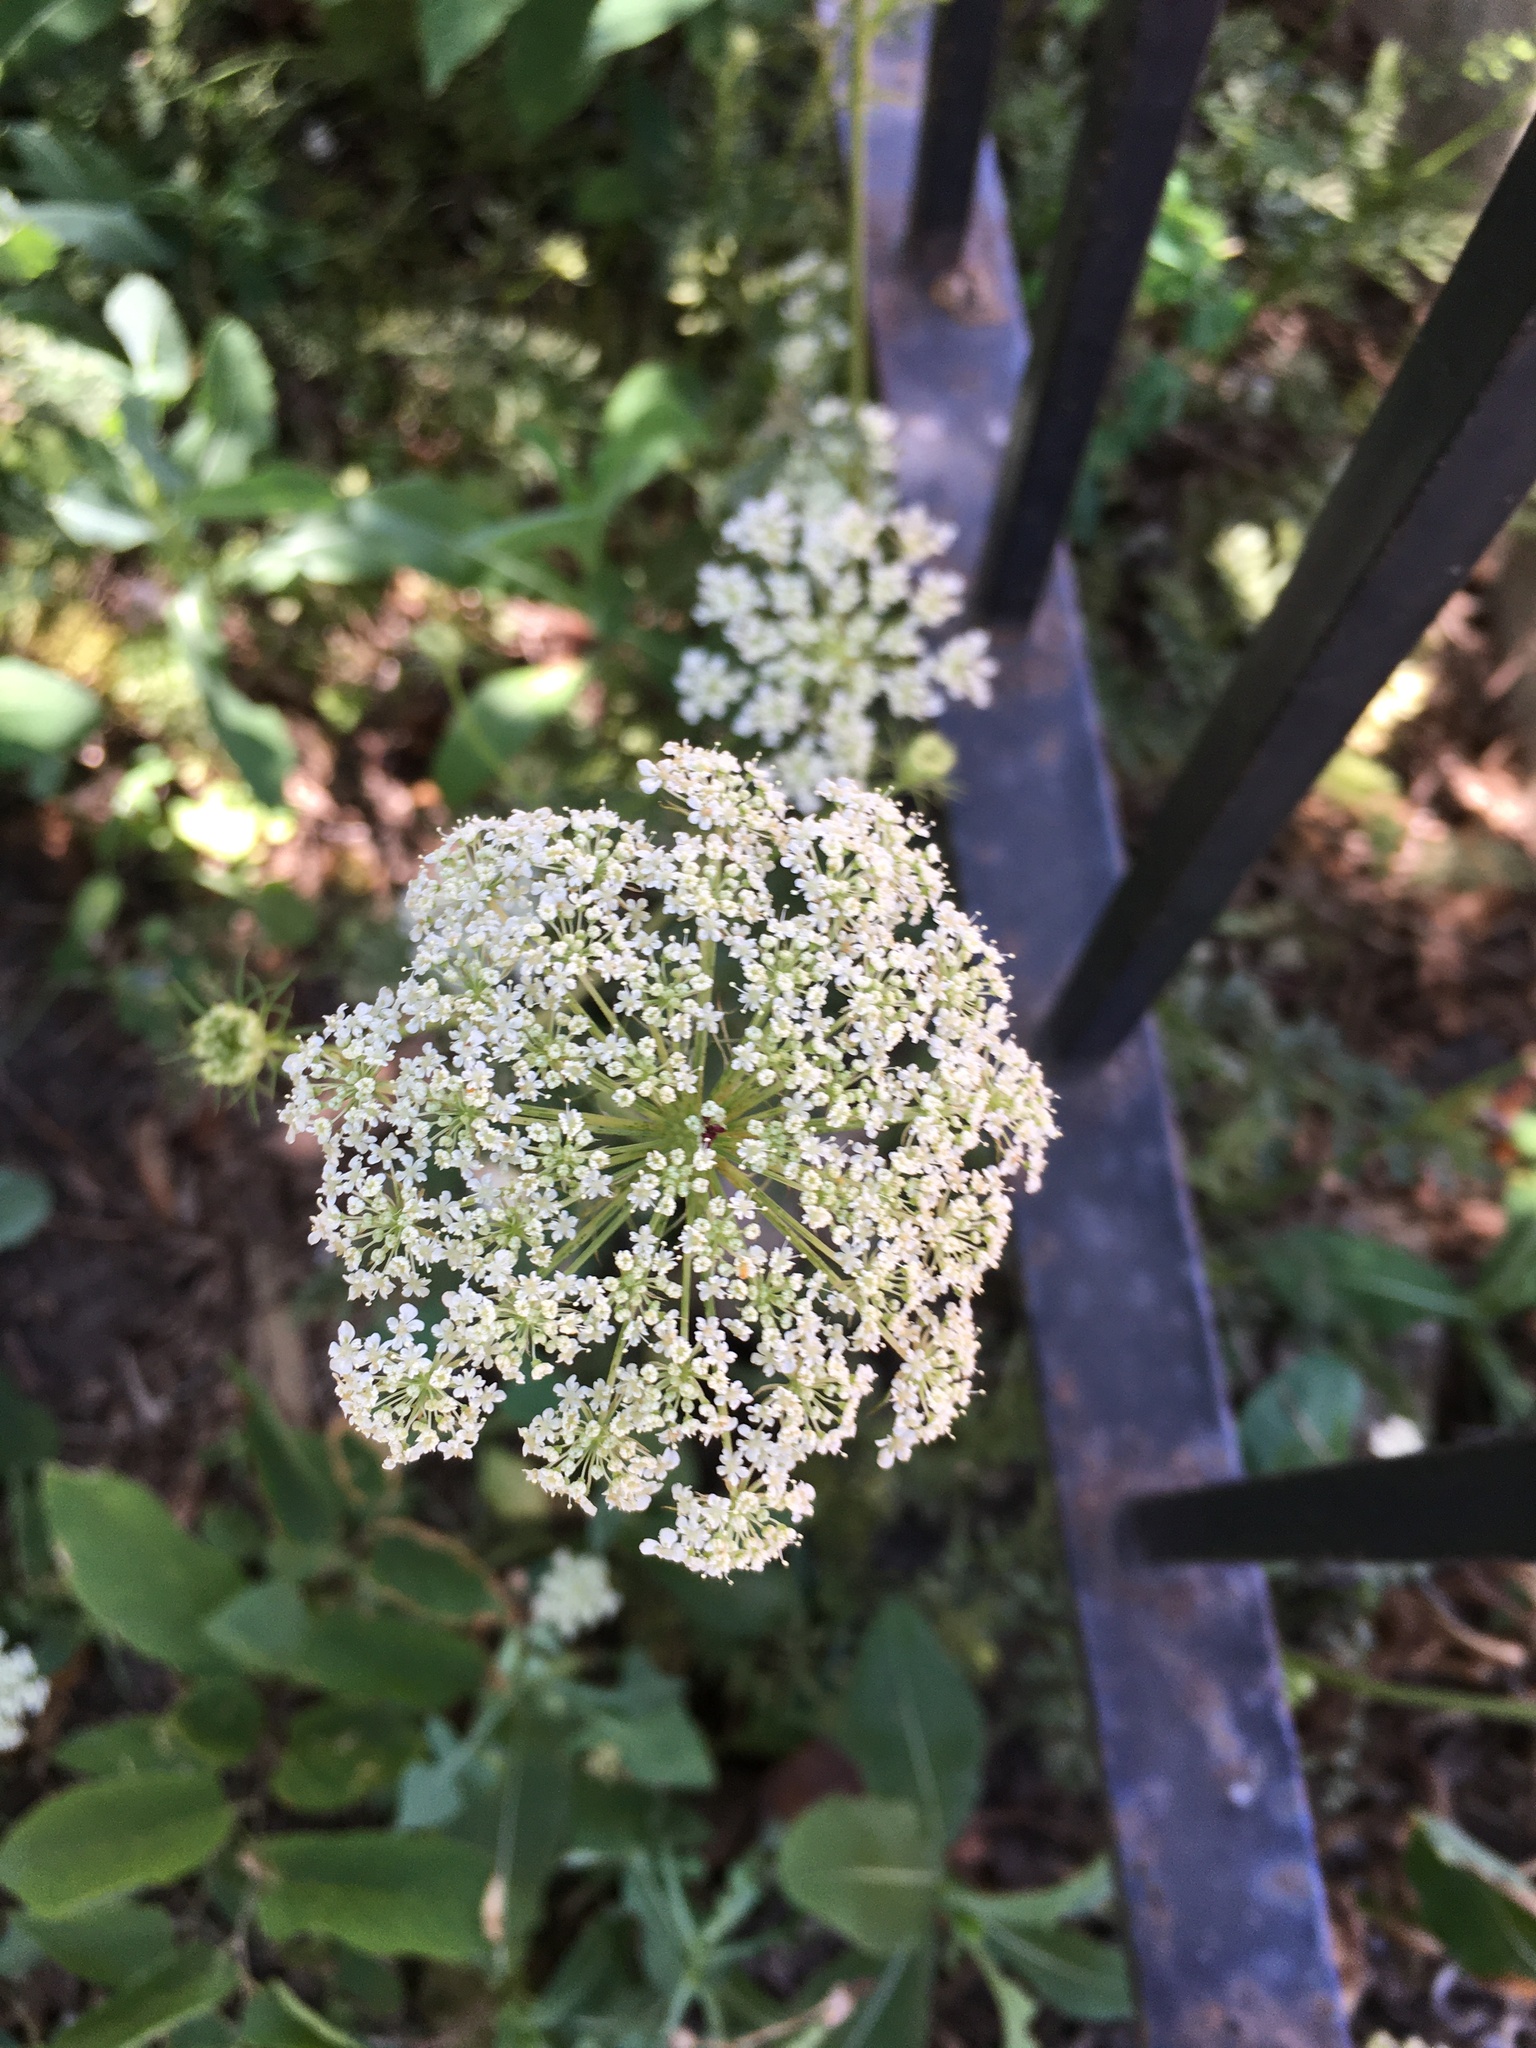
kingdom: Plantae
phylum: Tracheophyta
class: Magnoliopsida
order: Apiales
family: Apiaceae
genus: Daucus
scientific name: Daucus carota
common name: Wild carrot
